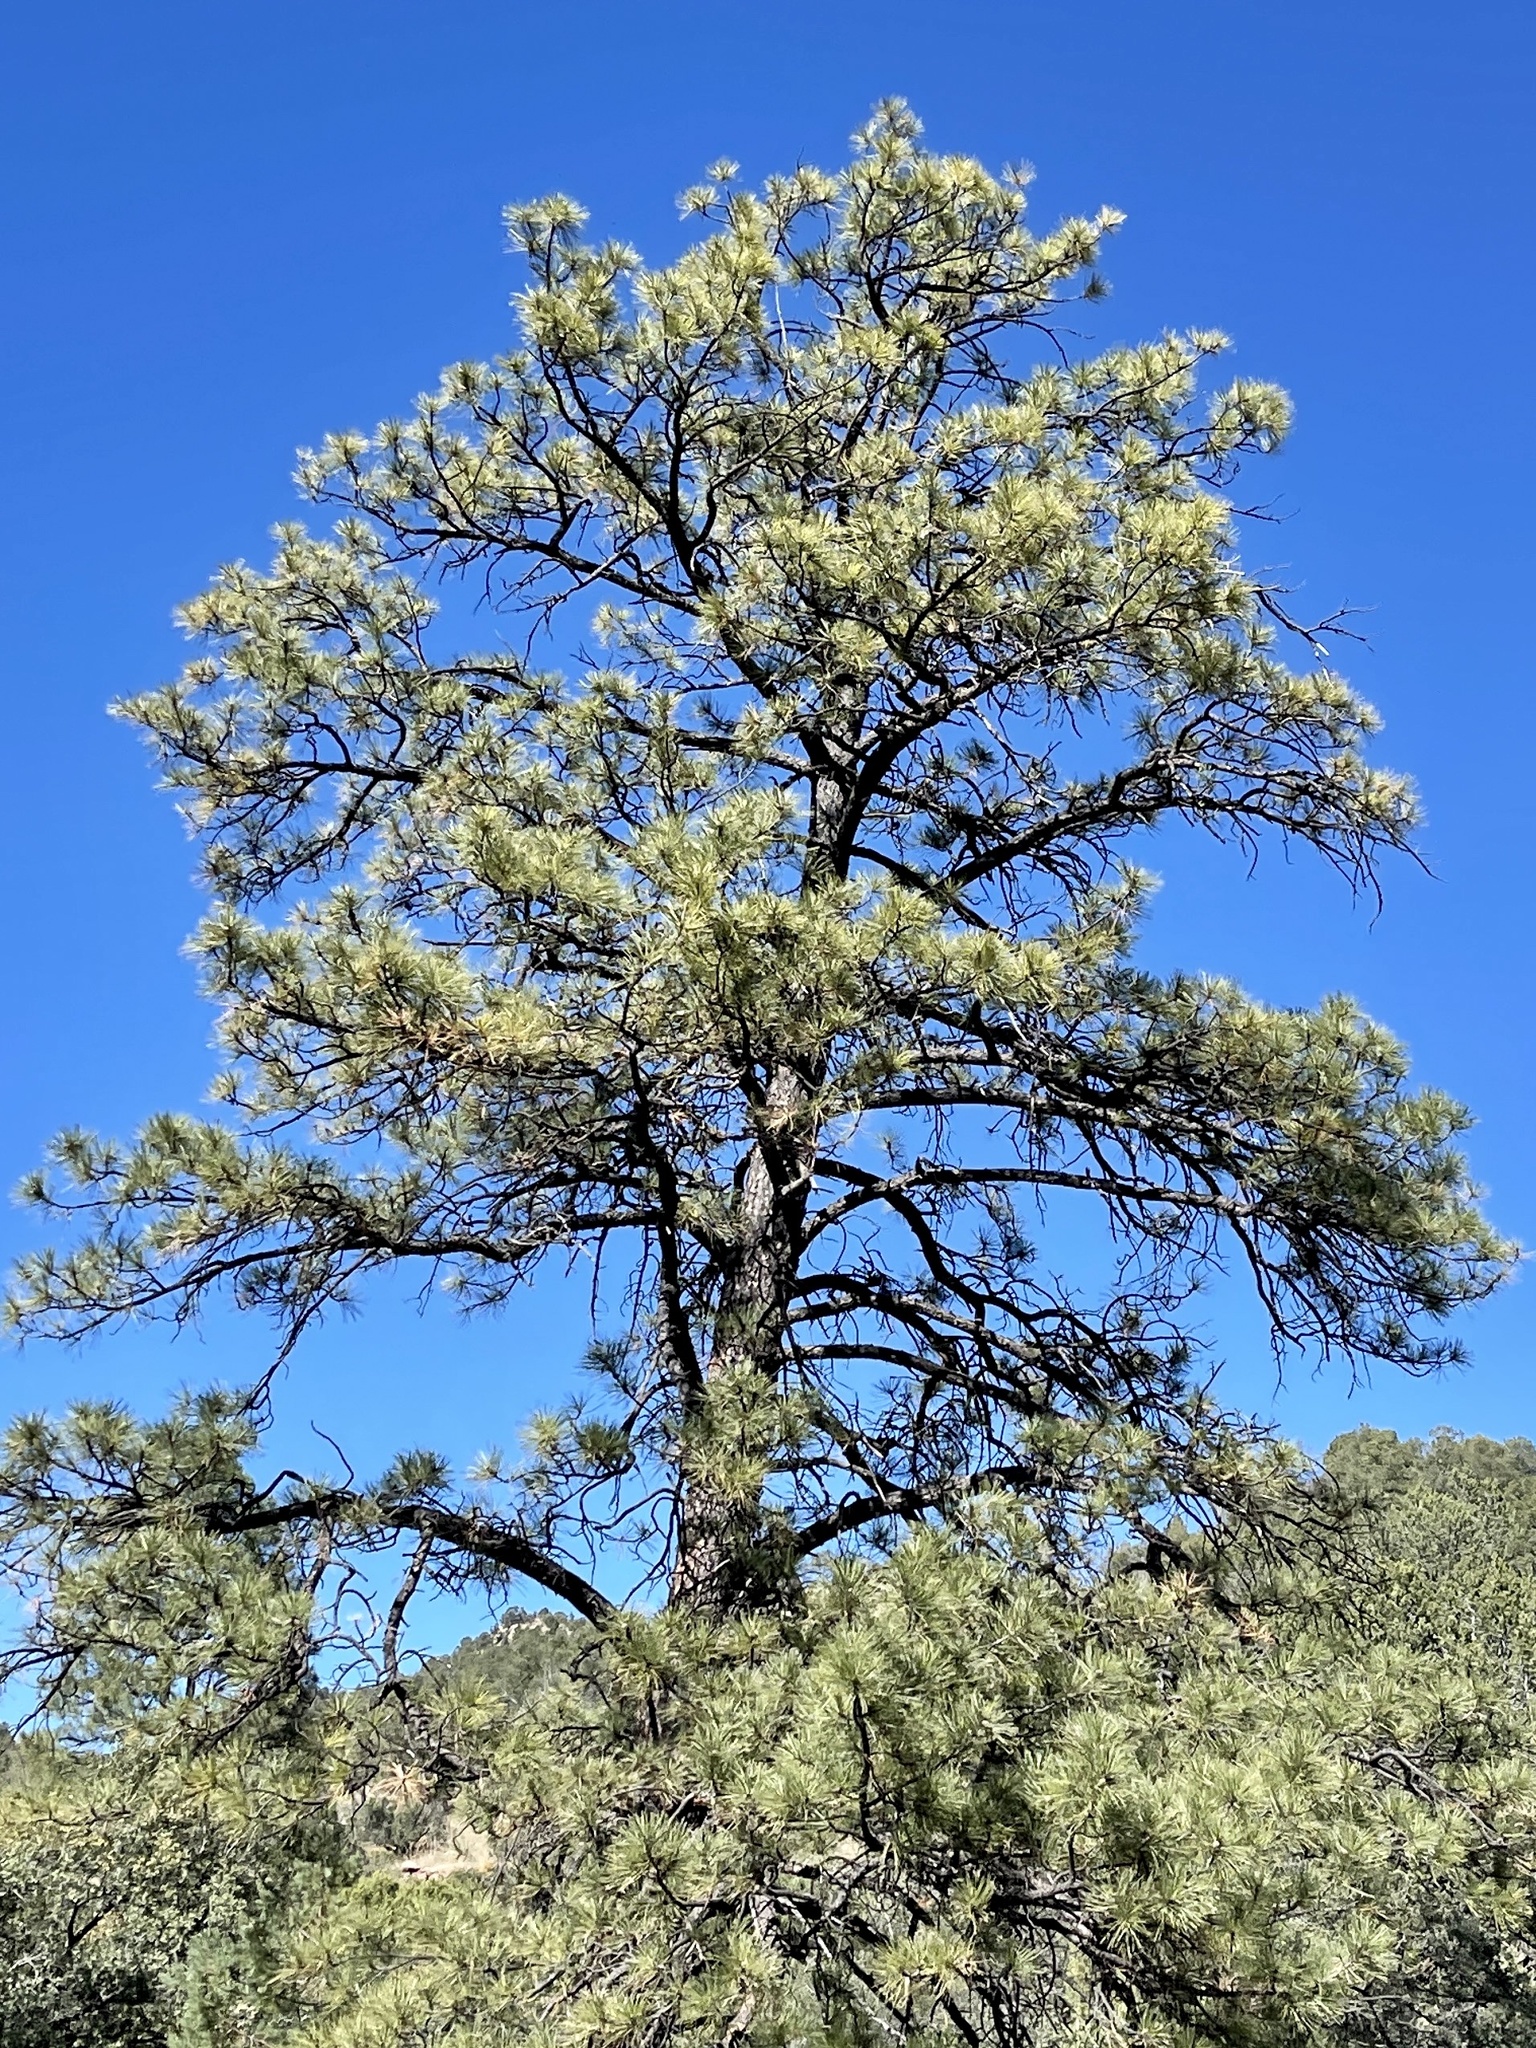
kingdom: Plantae
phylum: Tracheophyta
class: Pinopsida
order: Pinales
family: Pinaceae
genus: Pinus
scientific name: Pinus ponderosa
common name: Western yellow-pine
